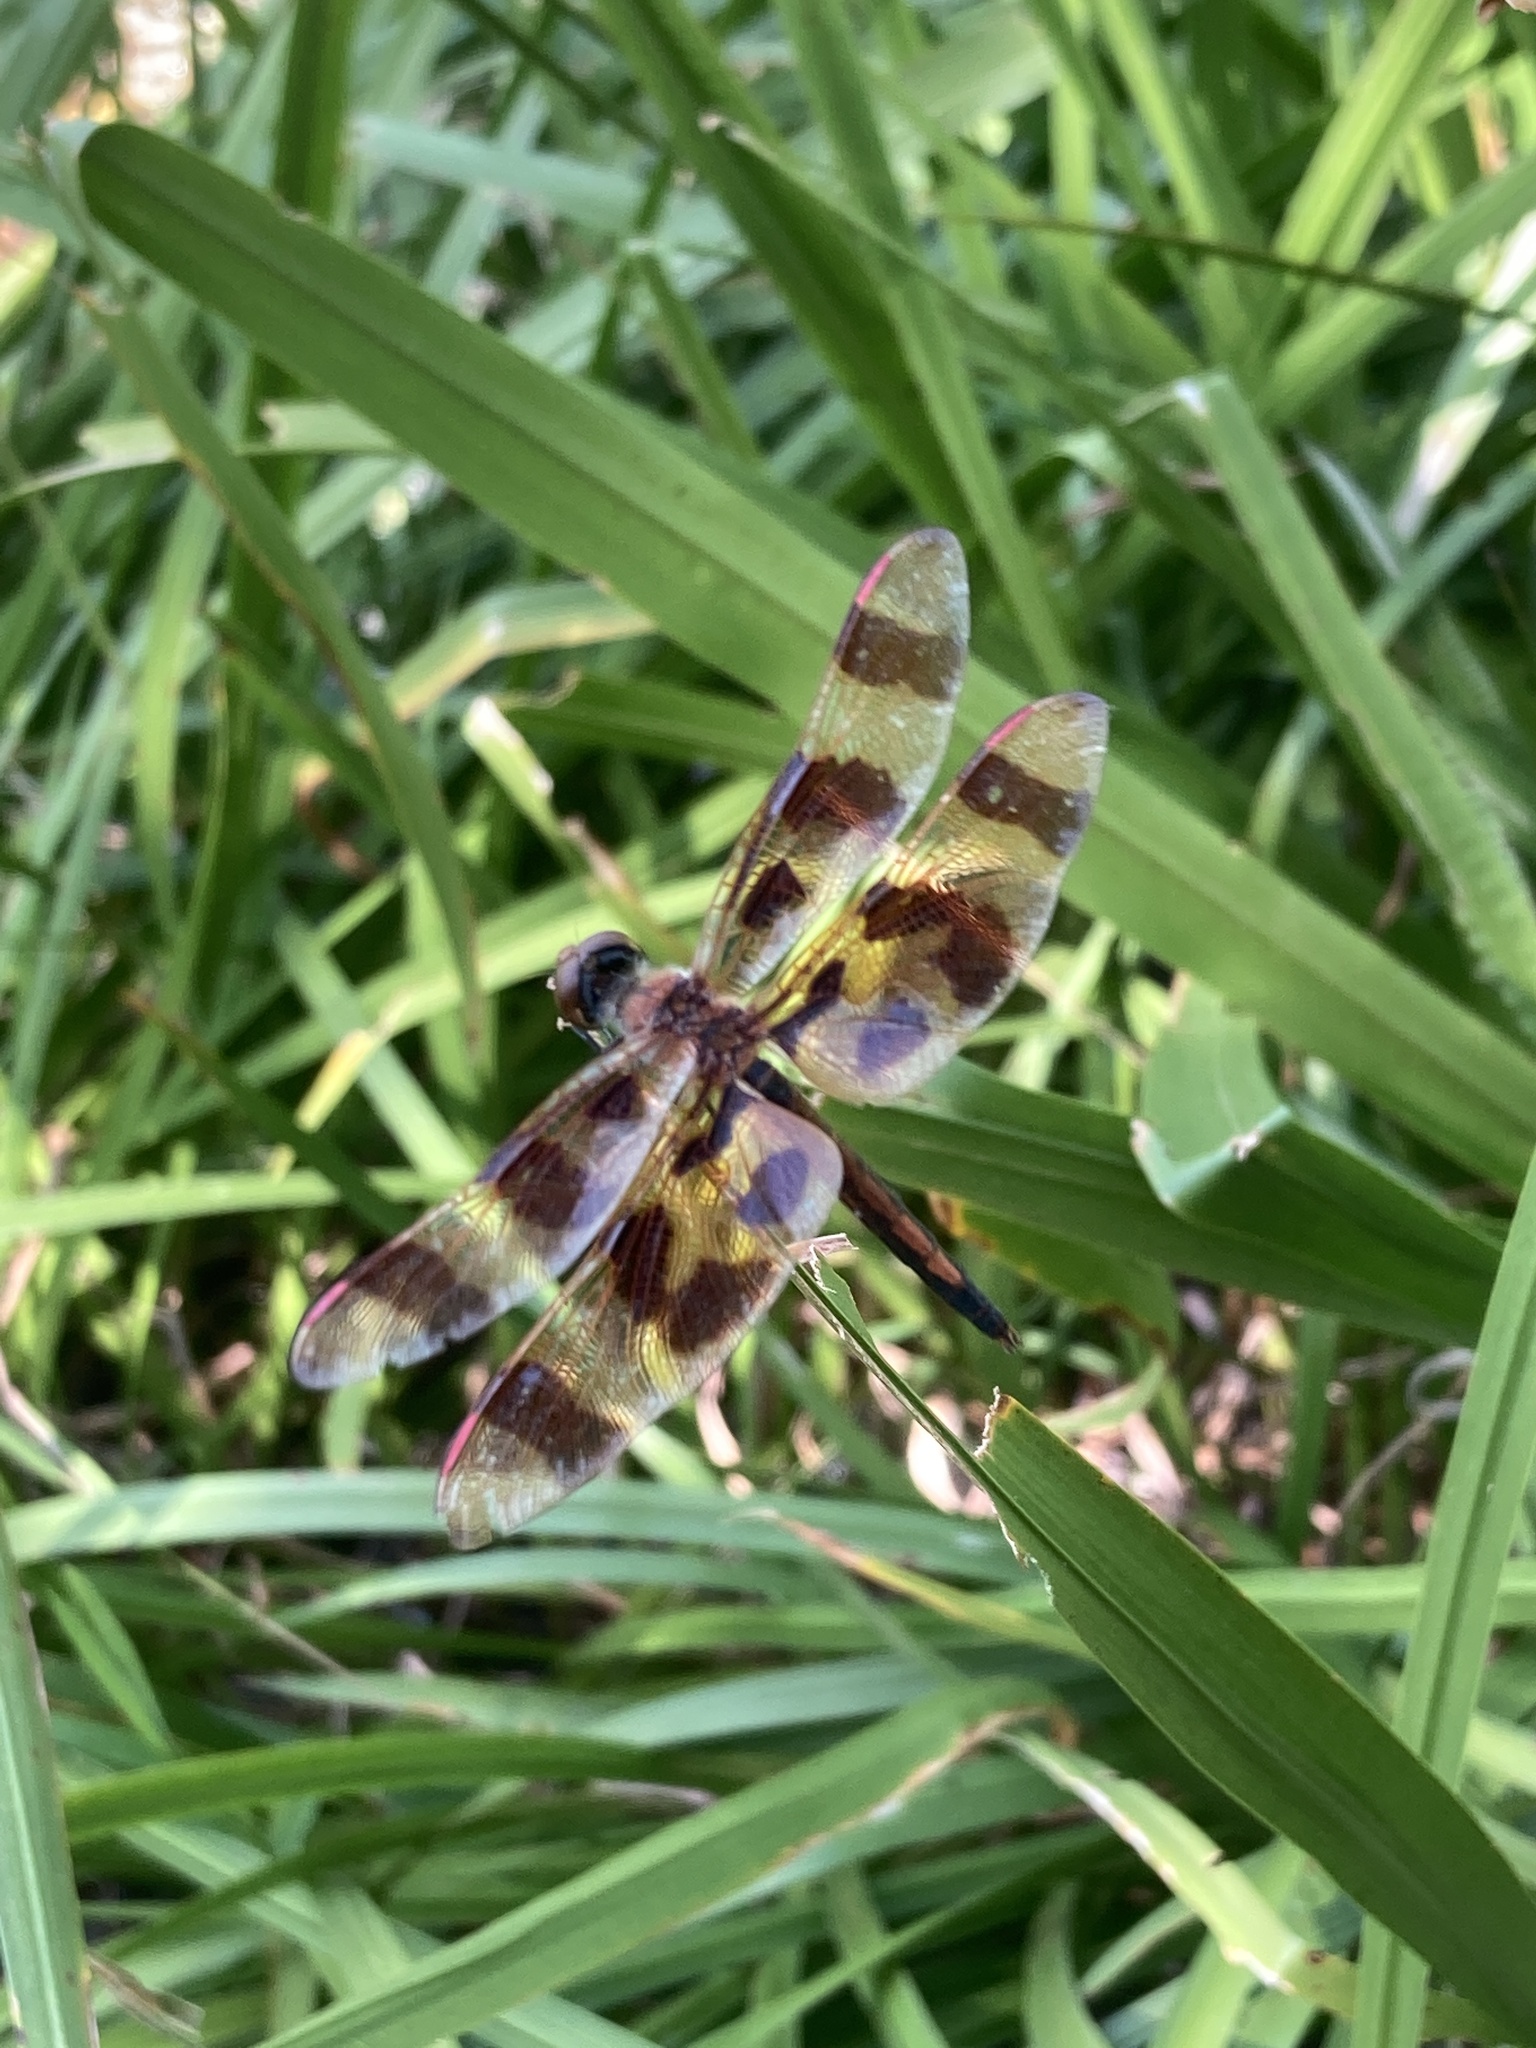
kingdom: Animalia
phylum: Arthropoda
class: Insecta
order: Odonata
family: Libellulidae
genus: Celithemis
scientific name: Celithemis eponina
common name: Halloween pennant
